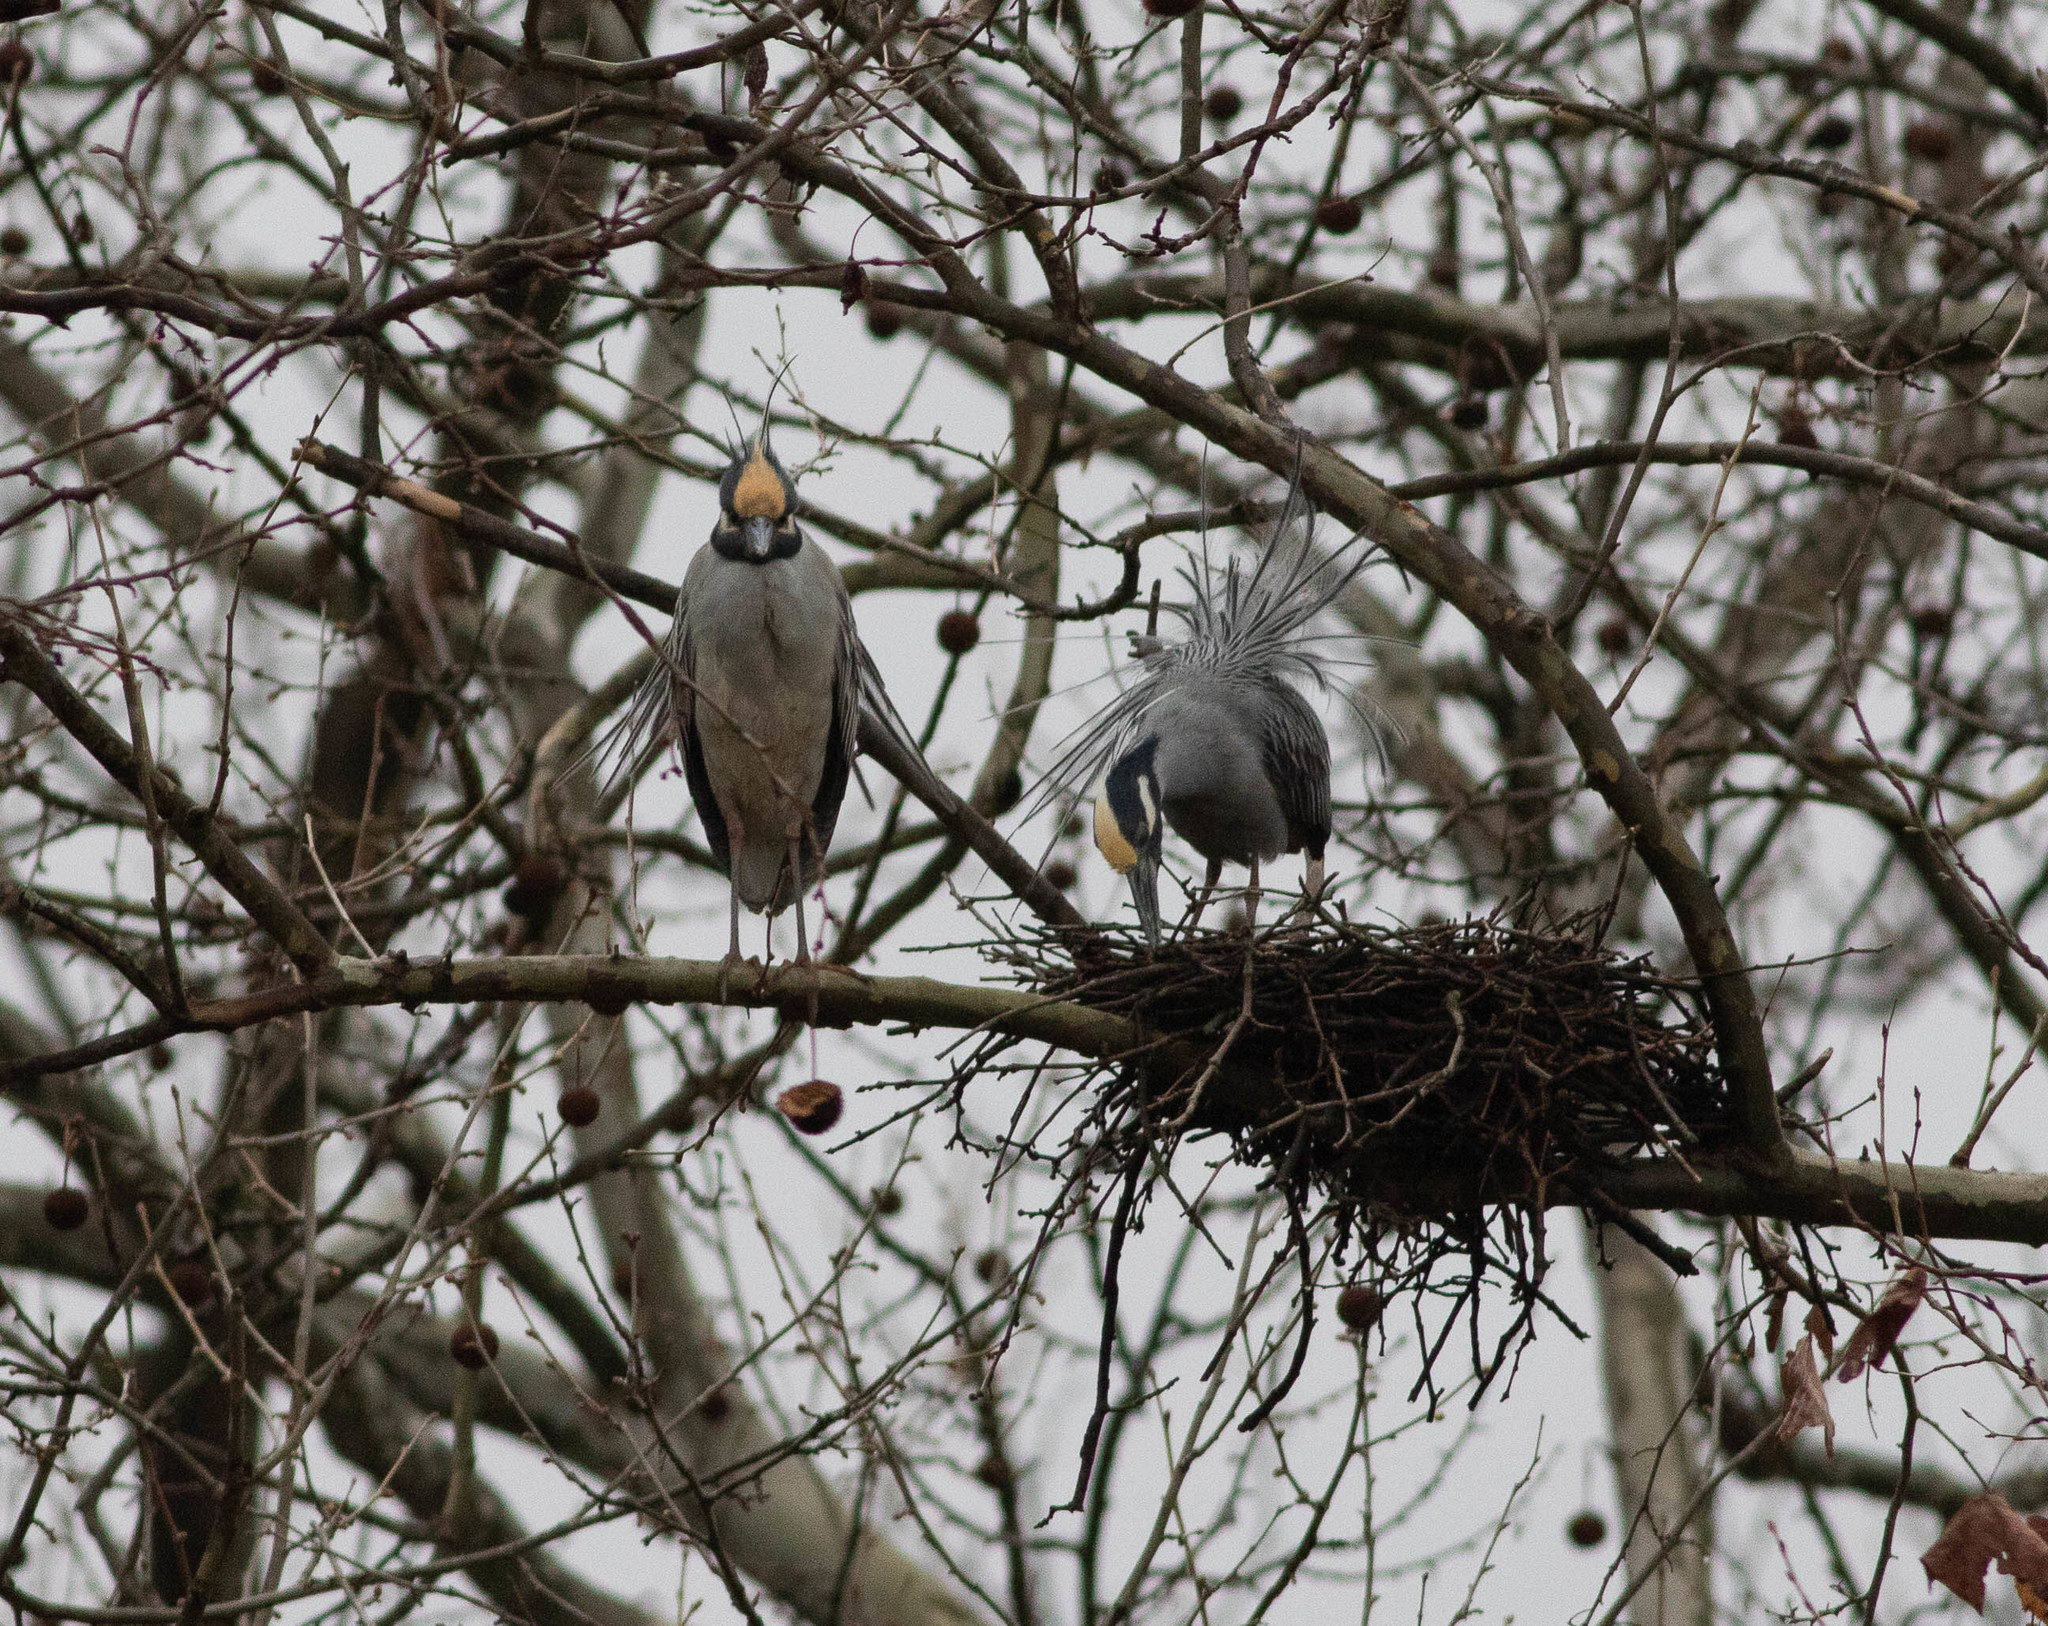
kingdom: Animalia
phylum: Chordata
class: Aves
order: Pelecaniformes
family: Ardeidae
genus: Nyctanassa
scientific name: Nyctanassa violacea
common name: Yellow-crowned night heron
